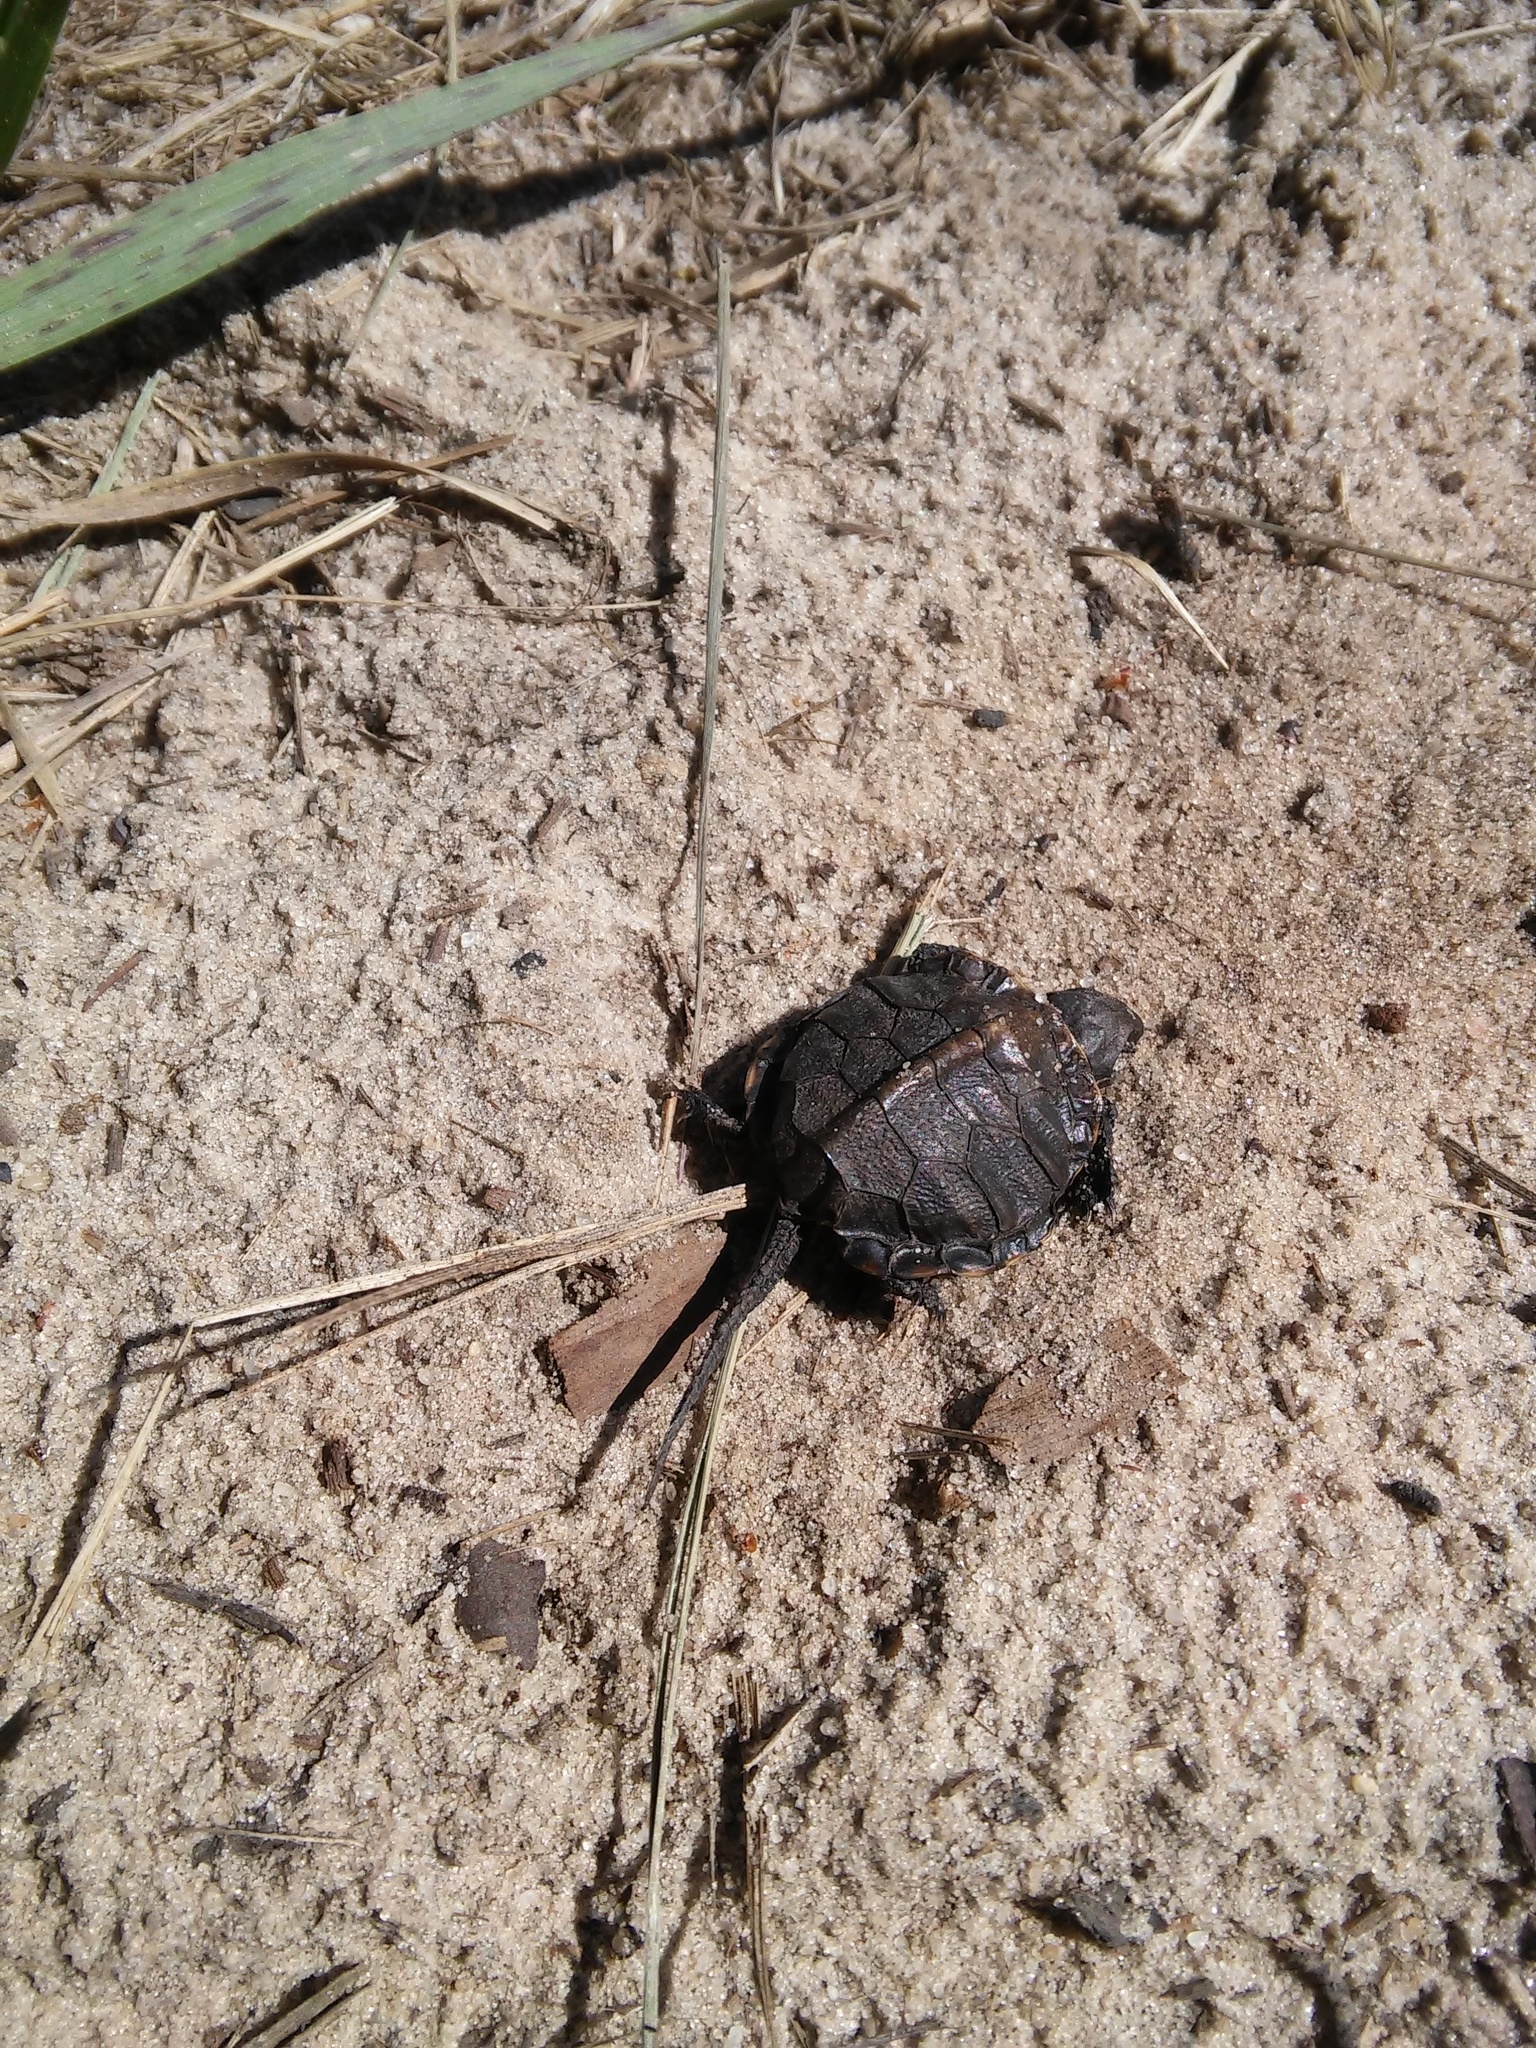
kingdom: Animalia
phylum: Chordata
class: Testudines
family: Emydidae
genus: Emys
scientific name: Emys orbicularis
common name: European pond turtle
